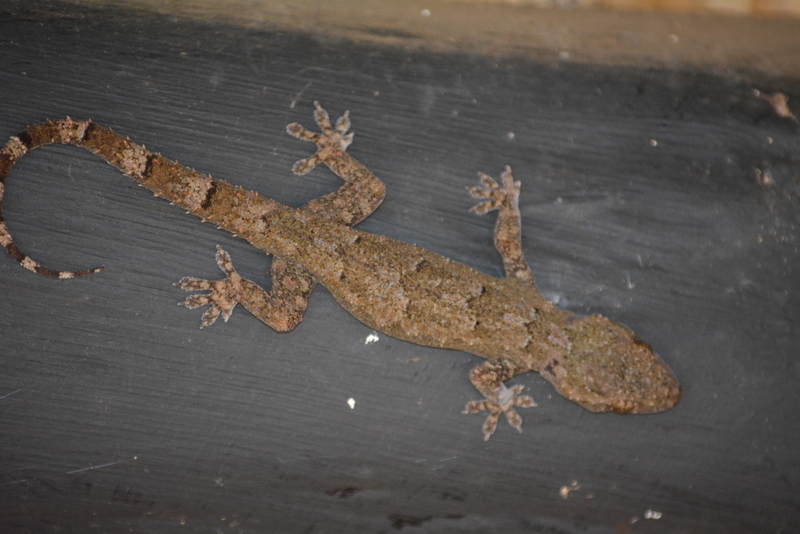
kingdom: Animalia
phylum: Chordata
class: Squamata
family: Gekkonidae
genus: Hemidactylus
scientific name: Hemidactylus mabouia
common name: House gecko
